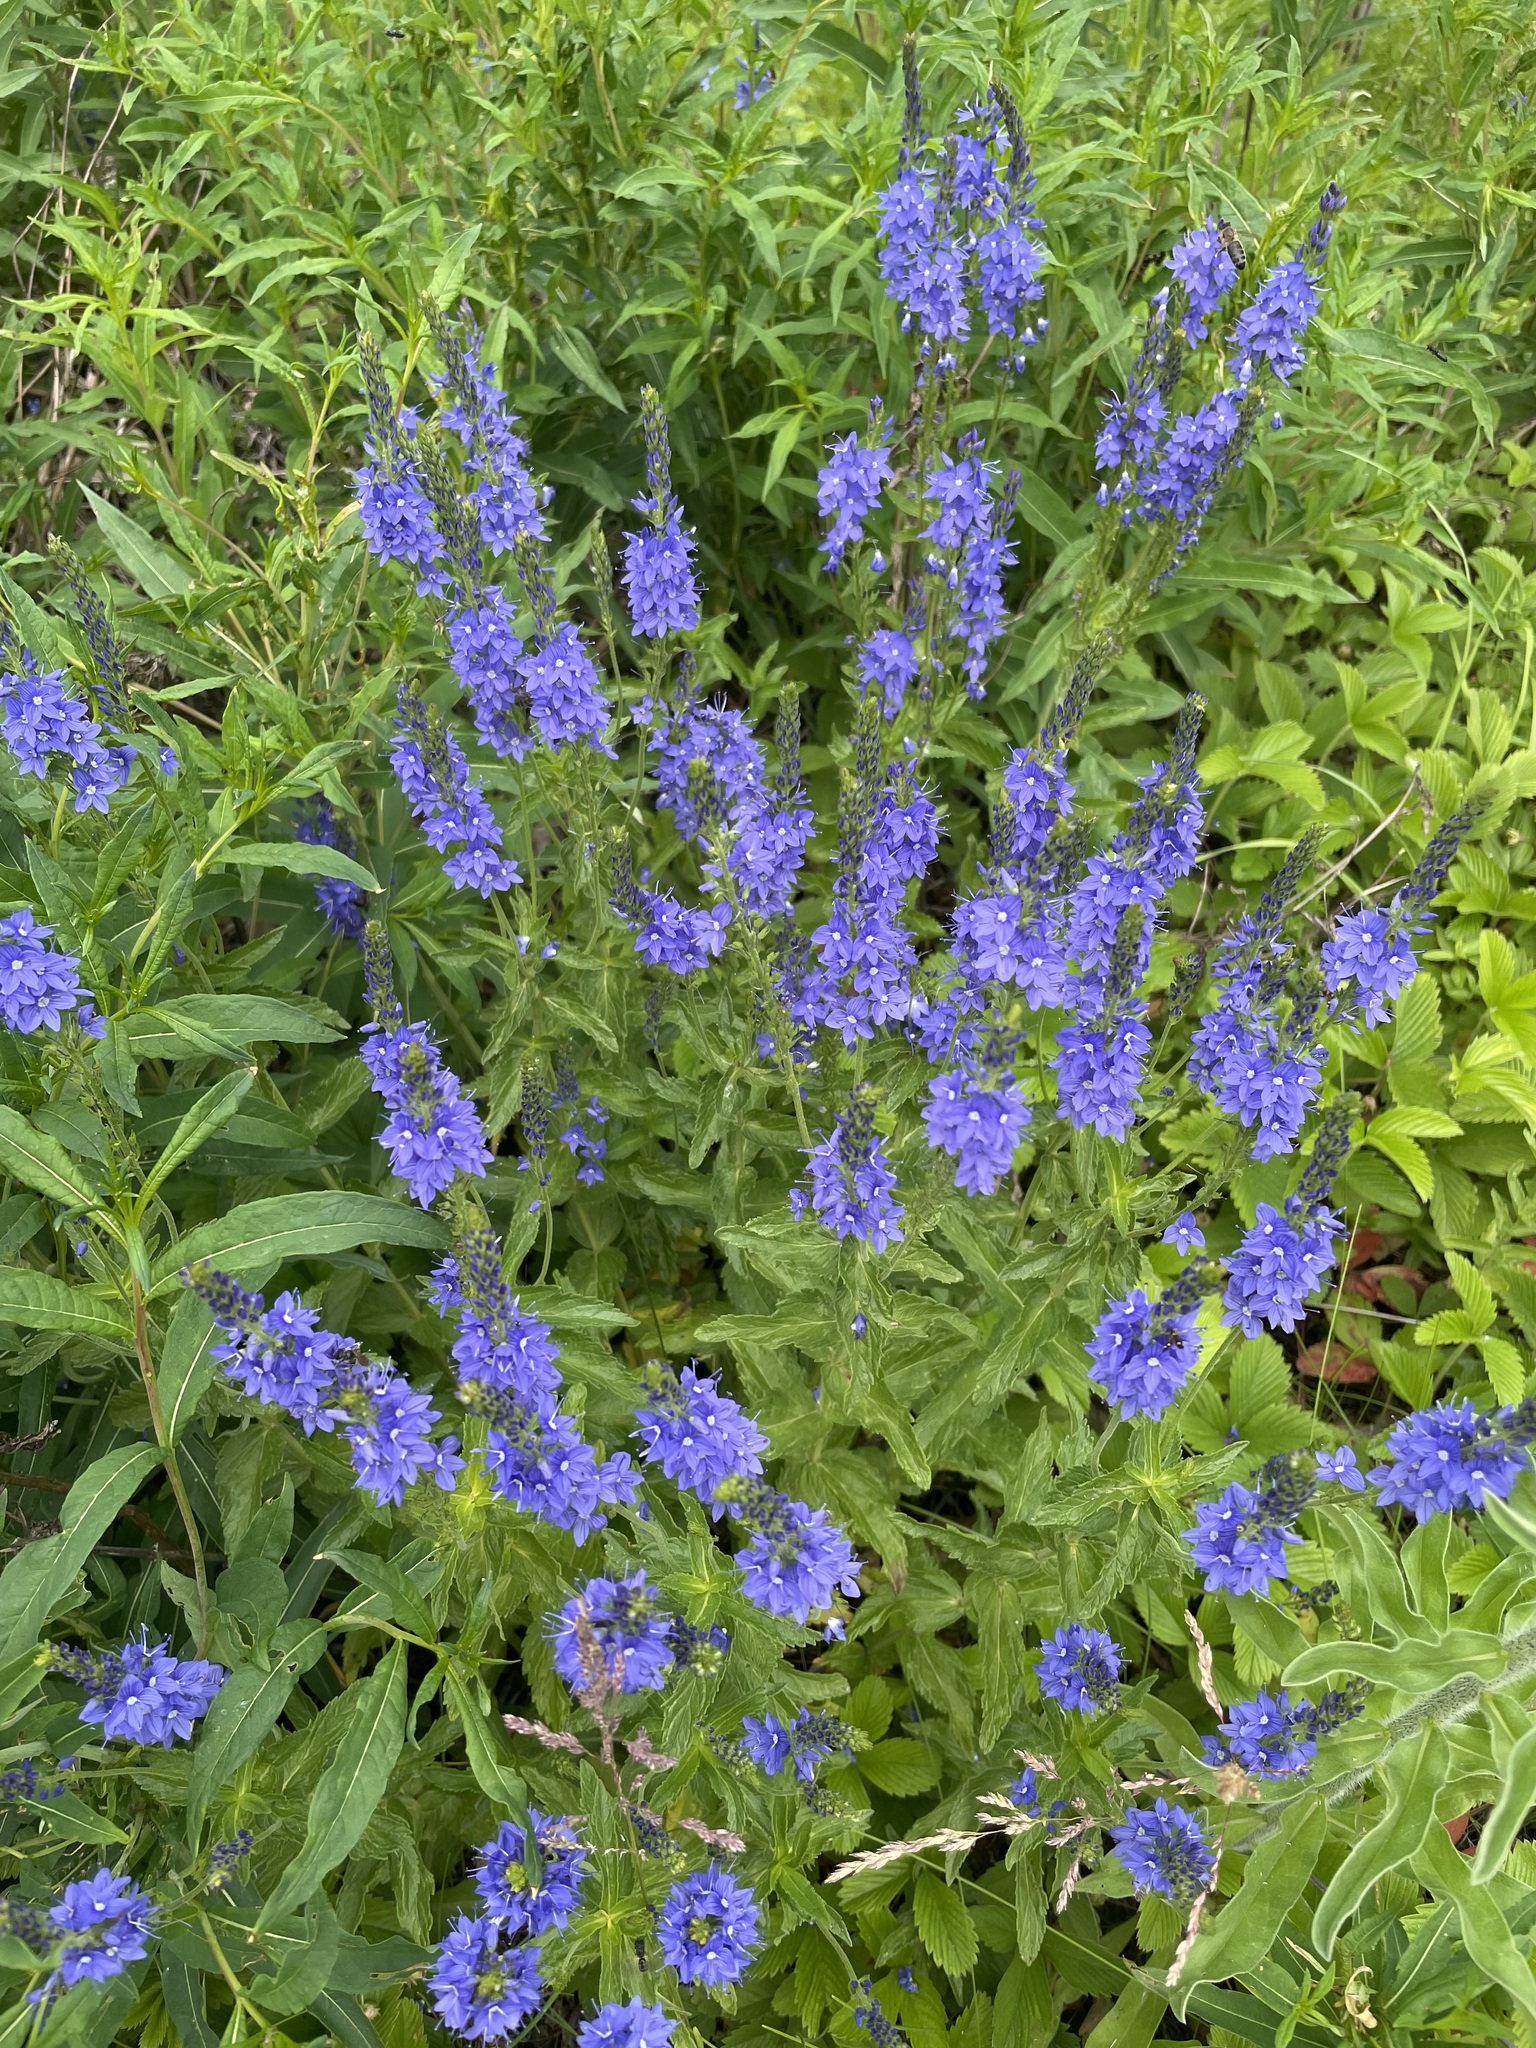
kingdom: Plantae
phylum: Tracheophyta
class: Magnoliopsida
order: Lamiales
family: Plantaginaceae
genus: Veronica
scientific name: Veronica teucrium
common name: Large speedwell
